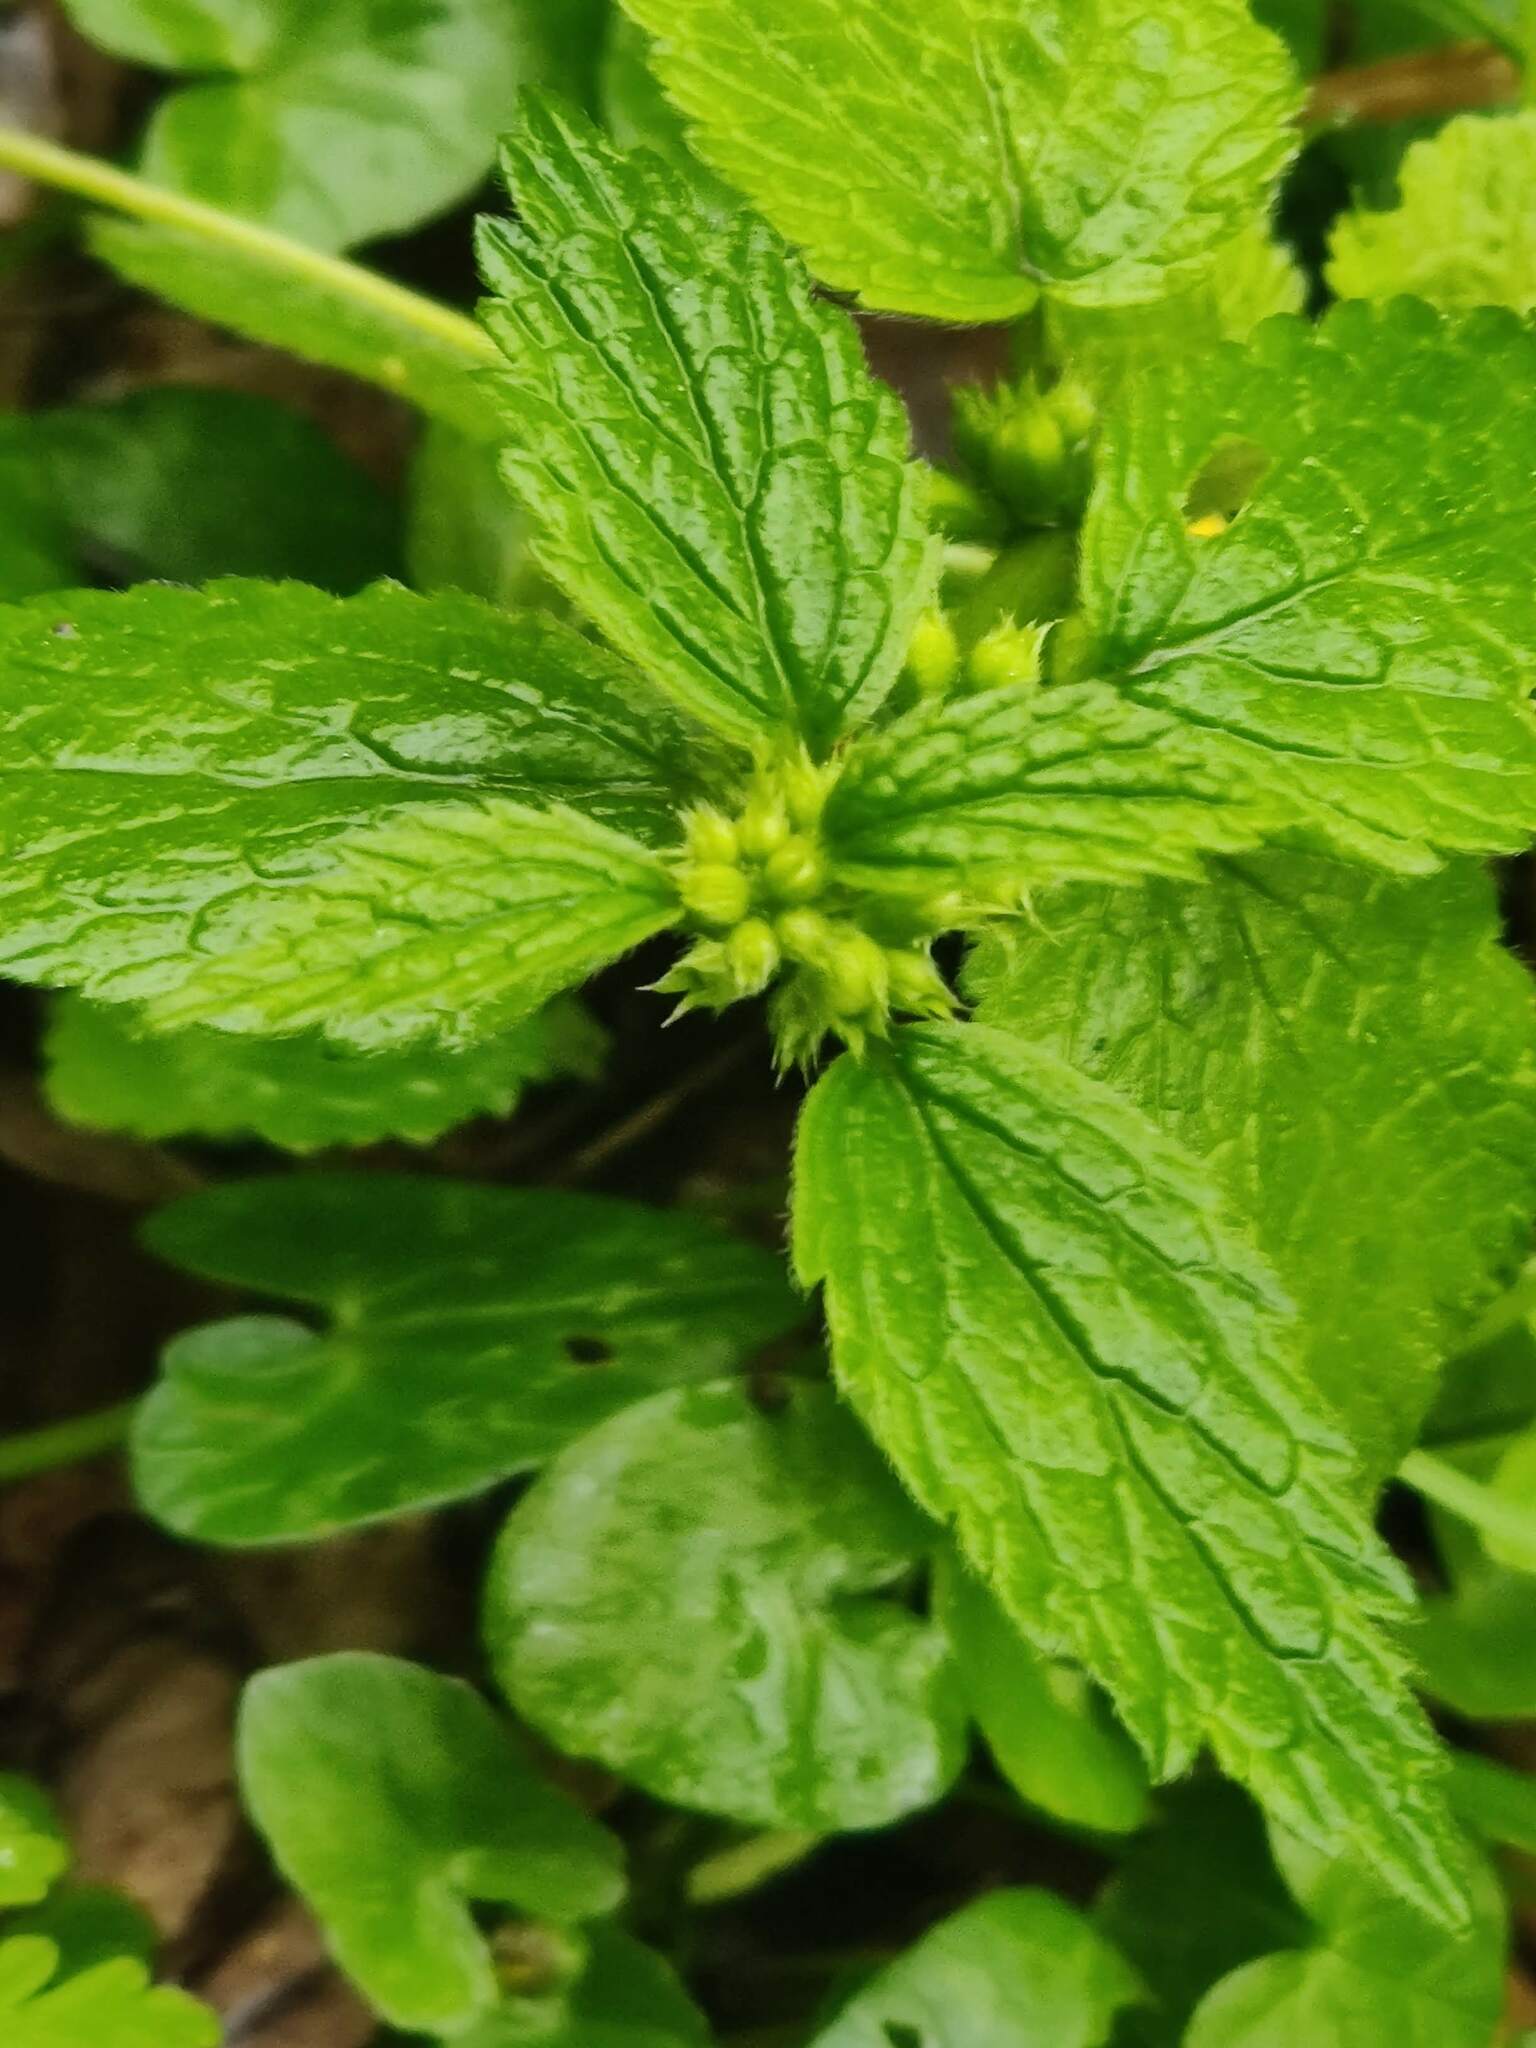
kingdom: Plantae
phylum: Tracheophyta
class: Magnoliopsida
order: Lamiales
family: Lamiaceae
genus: Lamium
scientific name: Lamium galeobdolon
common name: Yellow archangel
